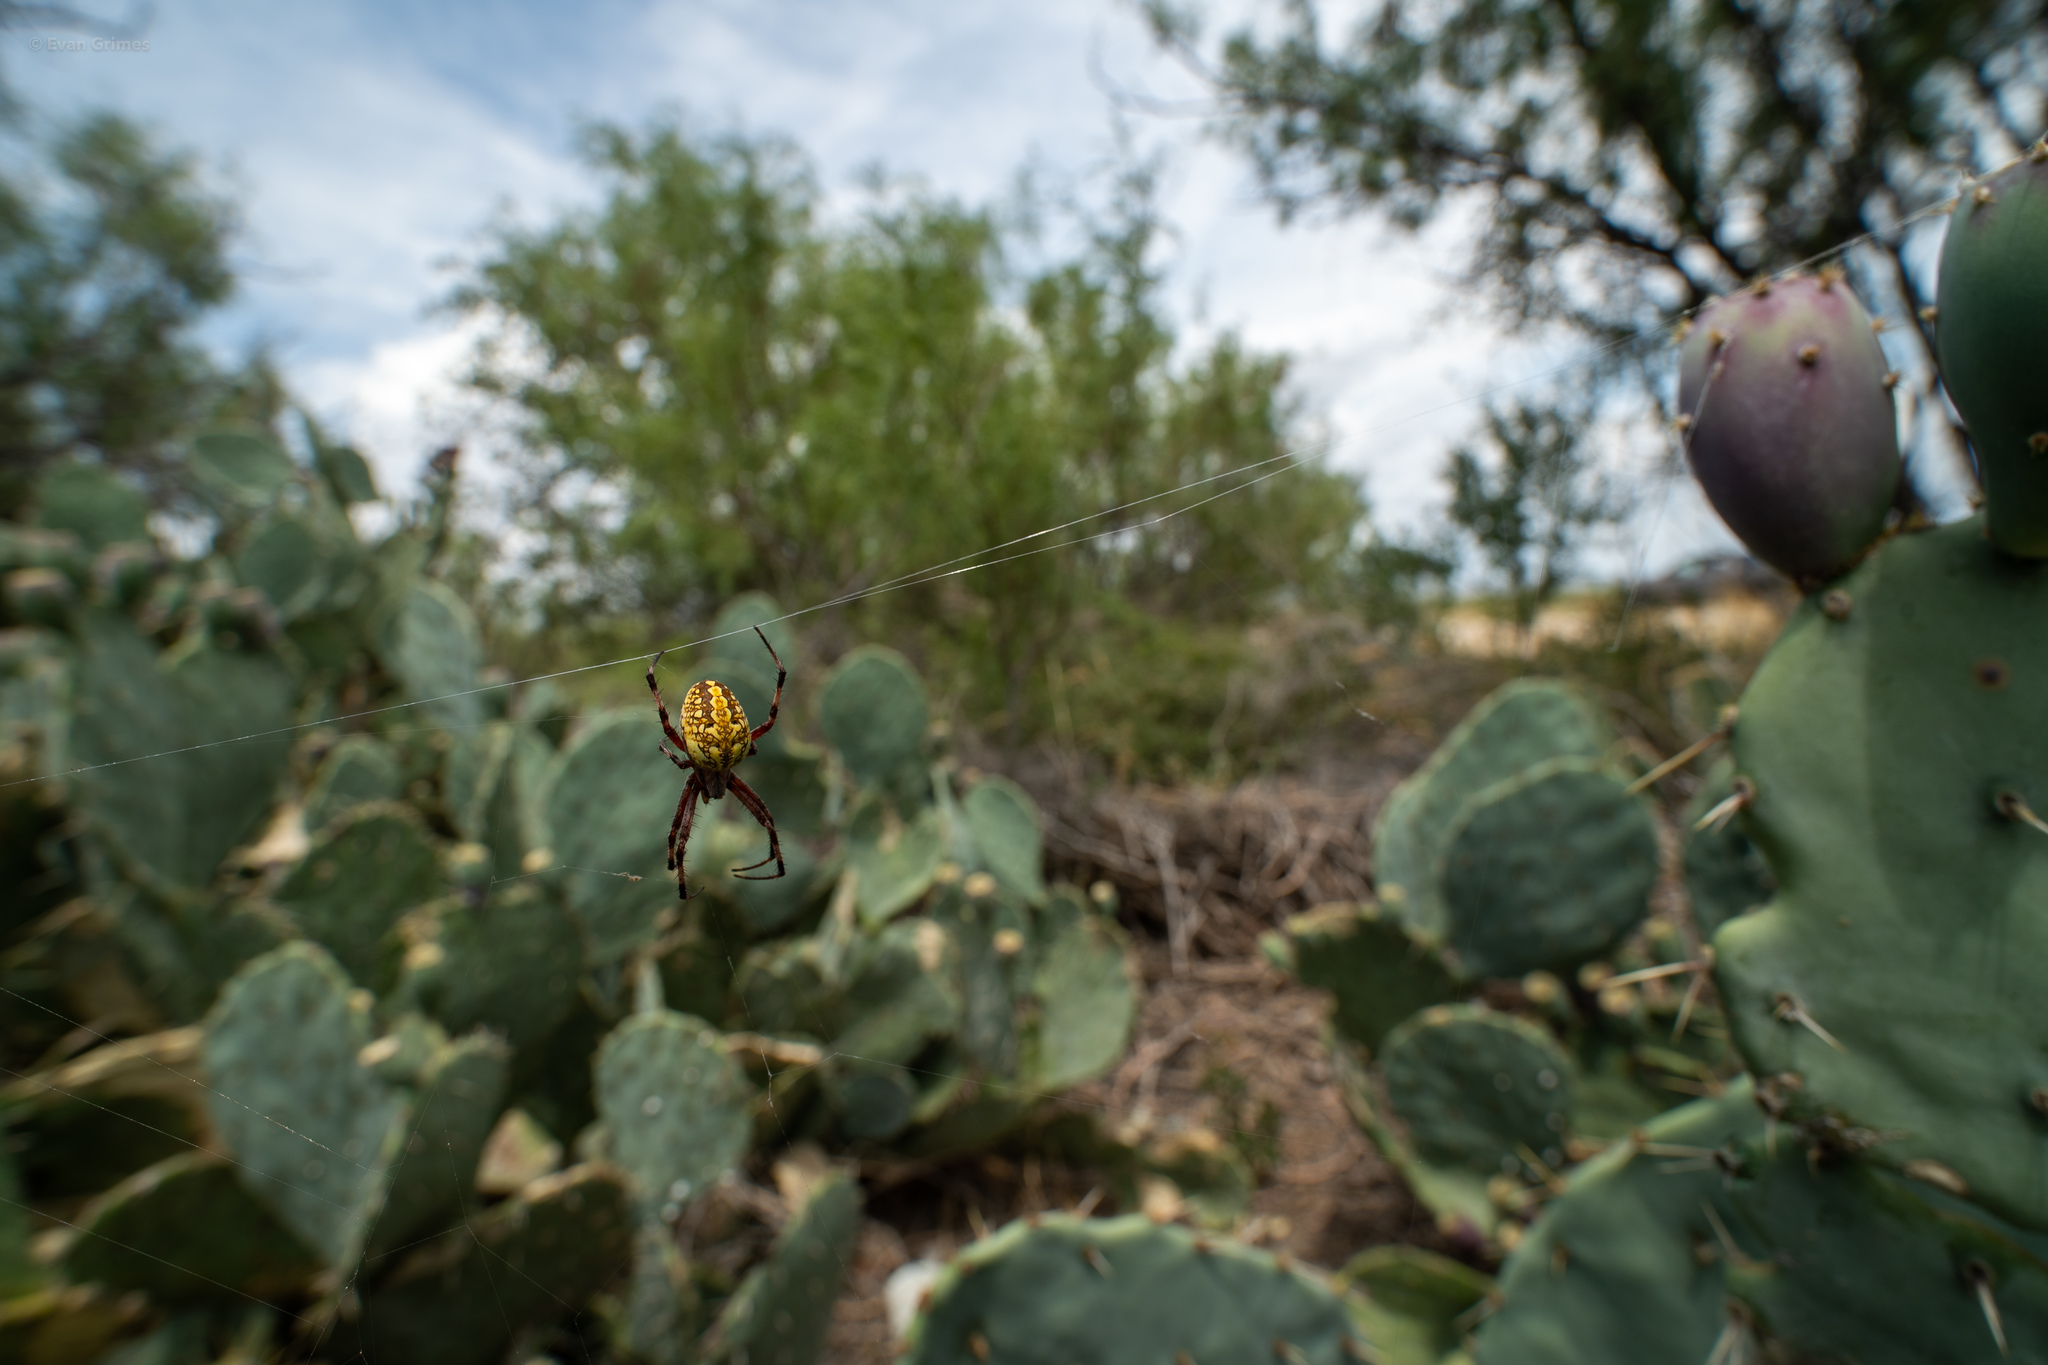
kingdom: Animalia
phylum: Arthropoda
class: Arachnida
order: Araneae
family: Araneidae
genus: Neoscona
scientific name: Neoscona oaxacensis
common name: Orb weavers
